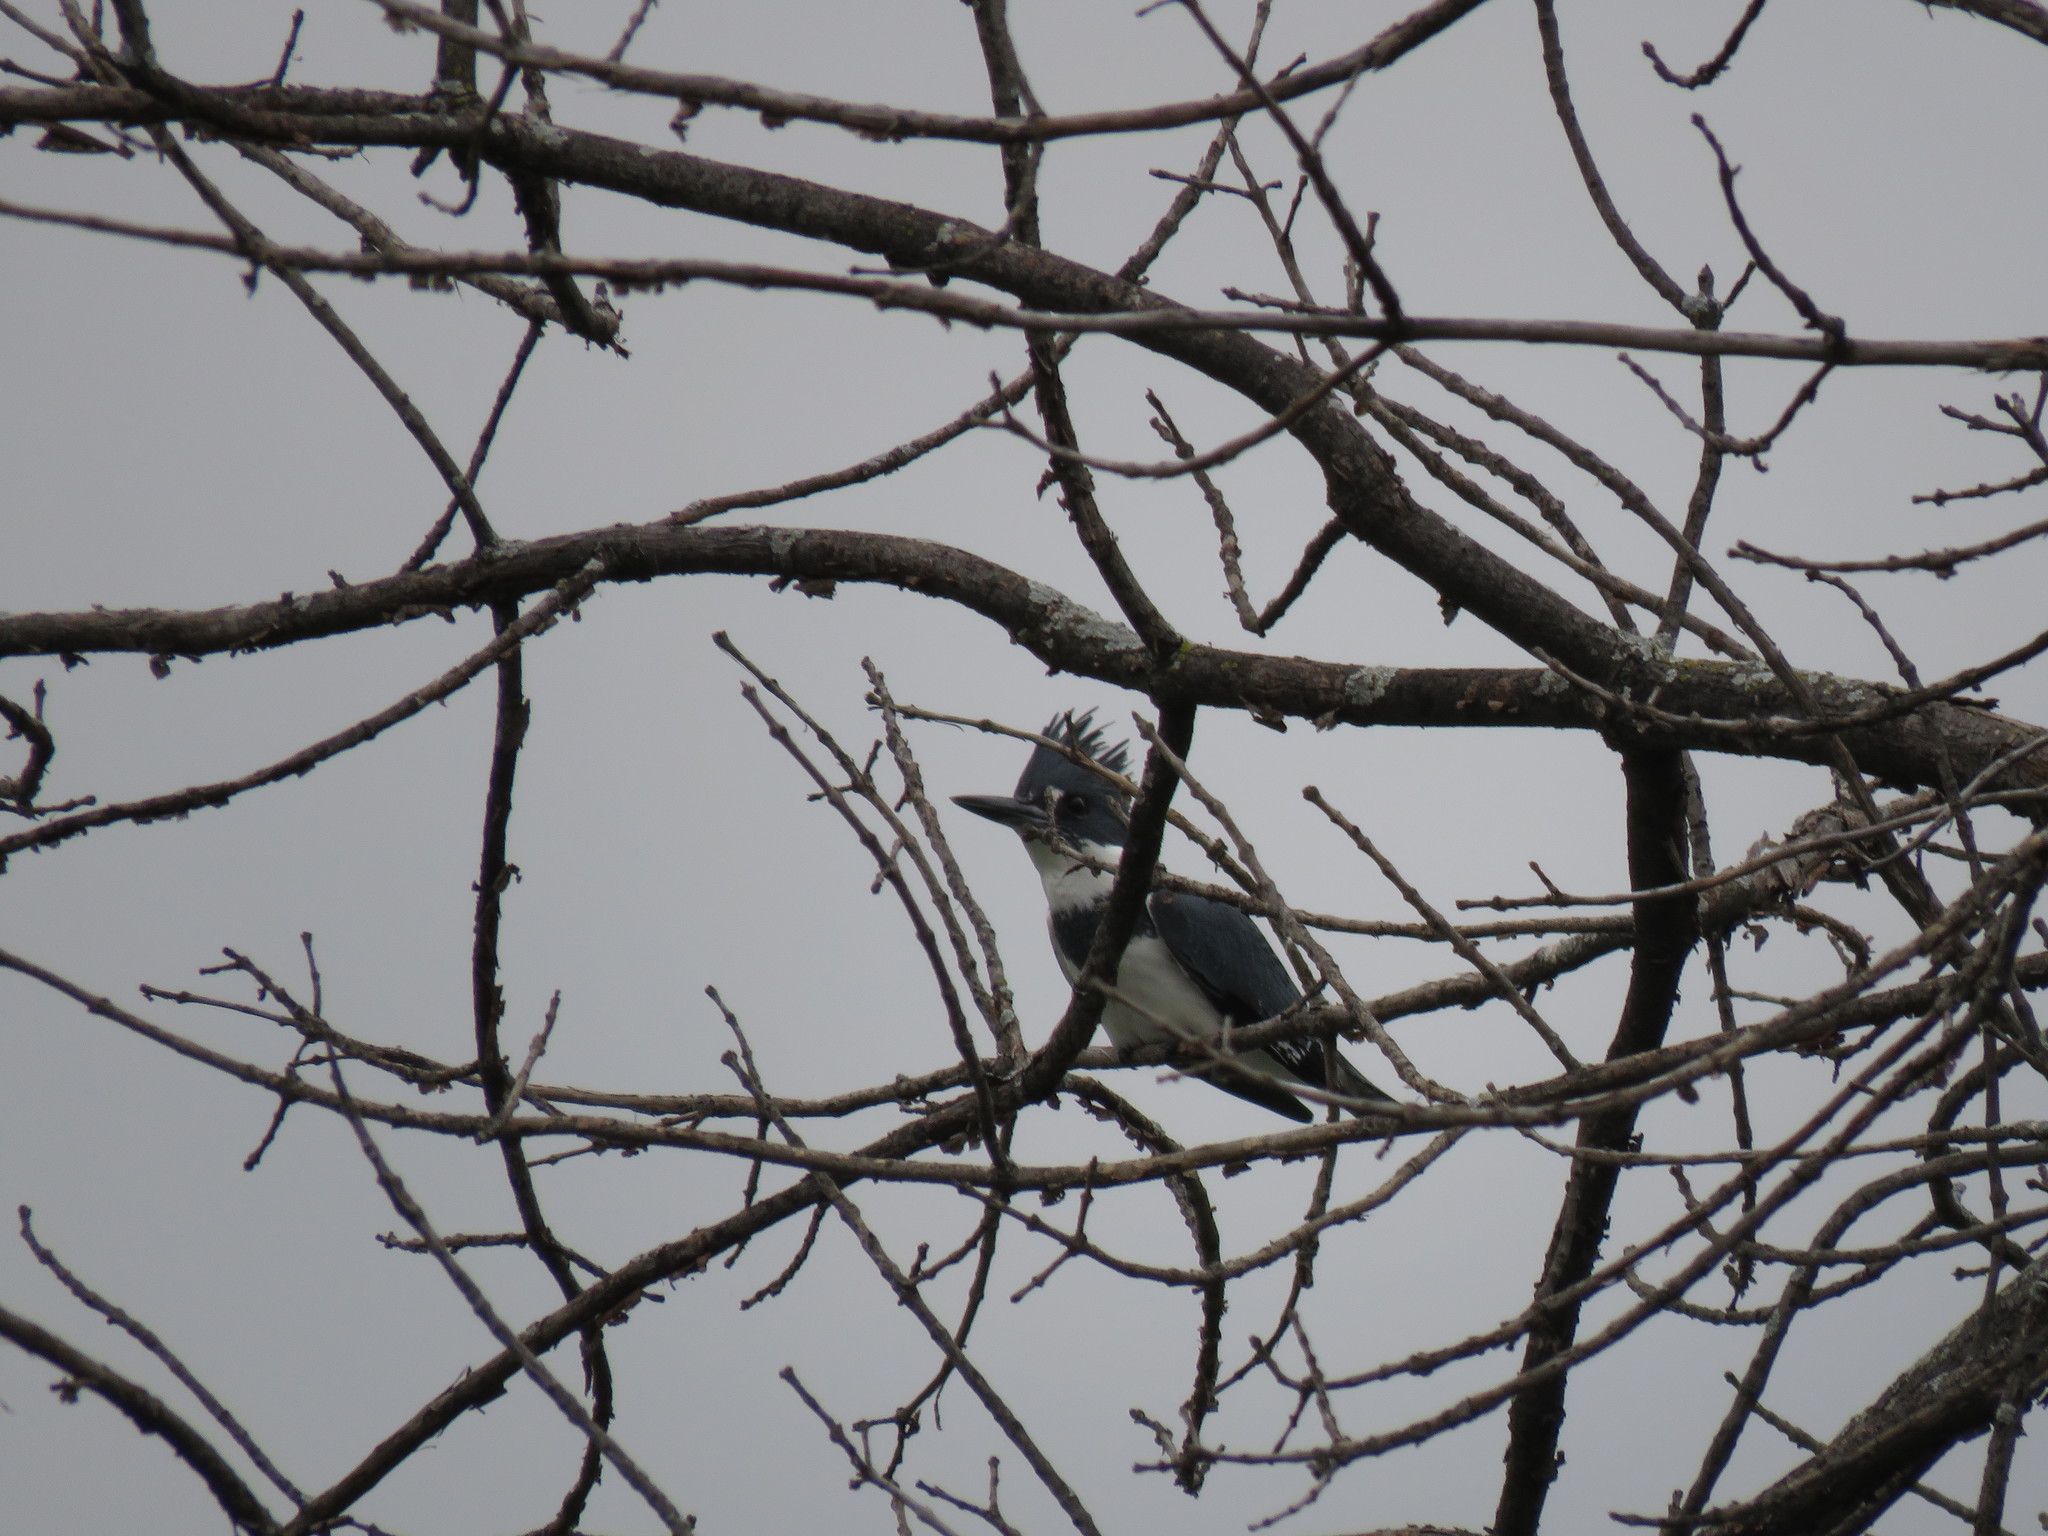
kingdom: Animalia
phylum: Chordata
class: Aves
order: Coraciiformes
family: Alcedinidae
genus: Megaceryle
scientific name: Megaceryle alcyon
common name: Belted kingfisher
